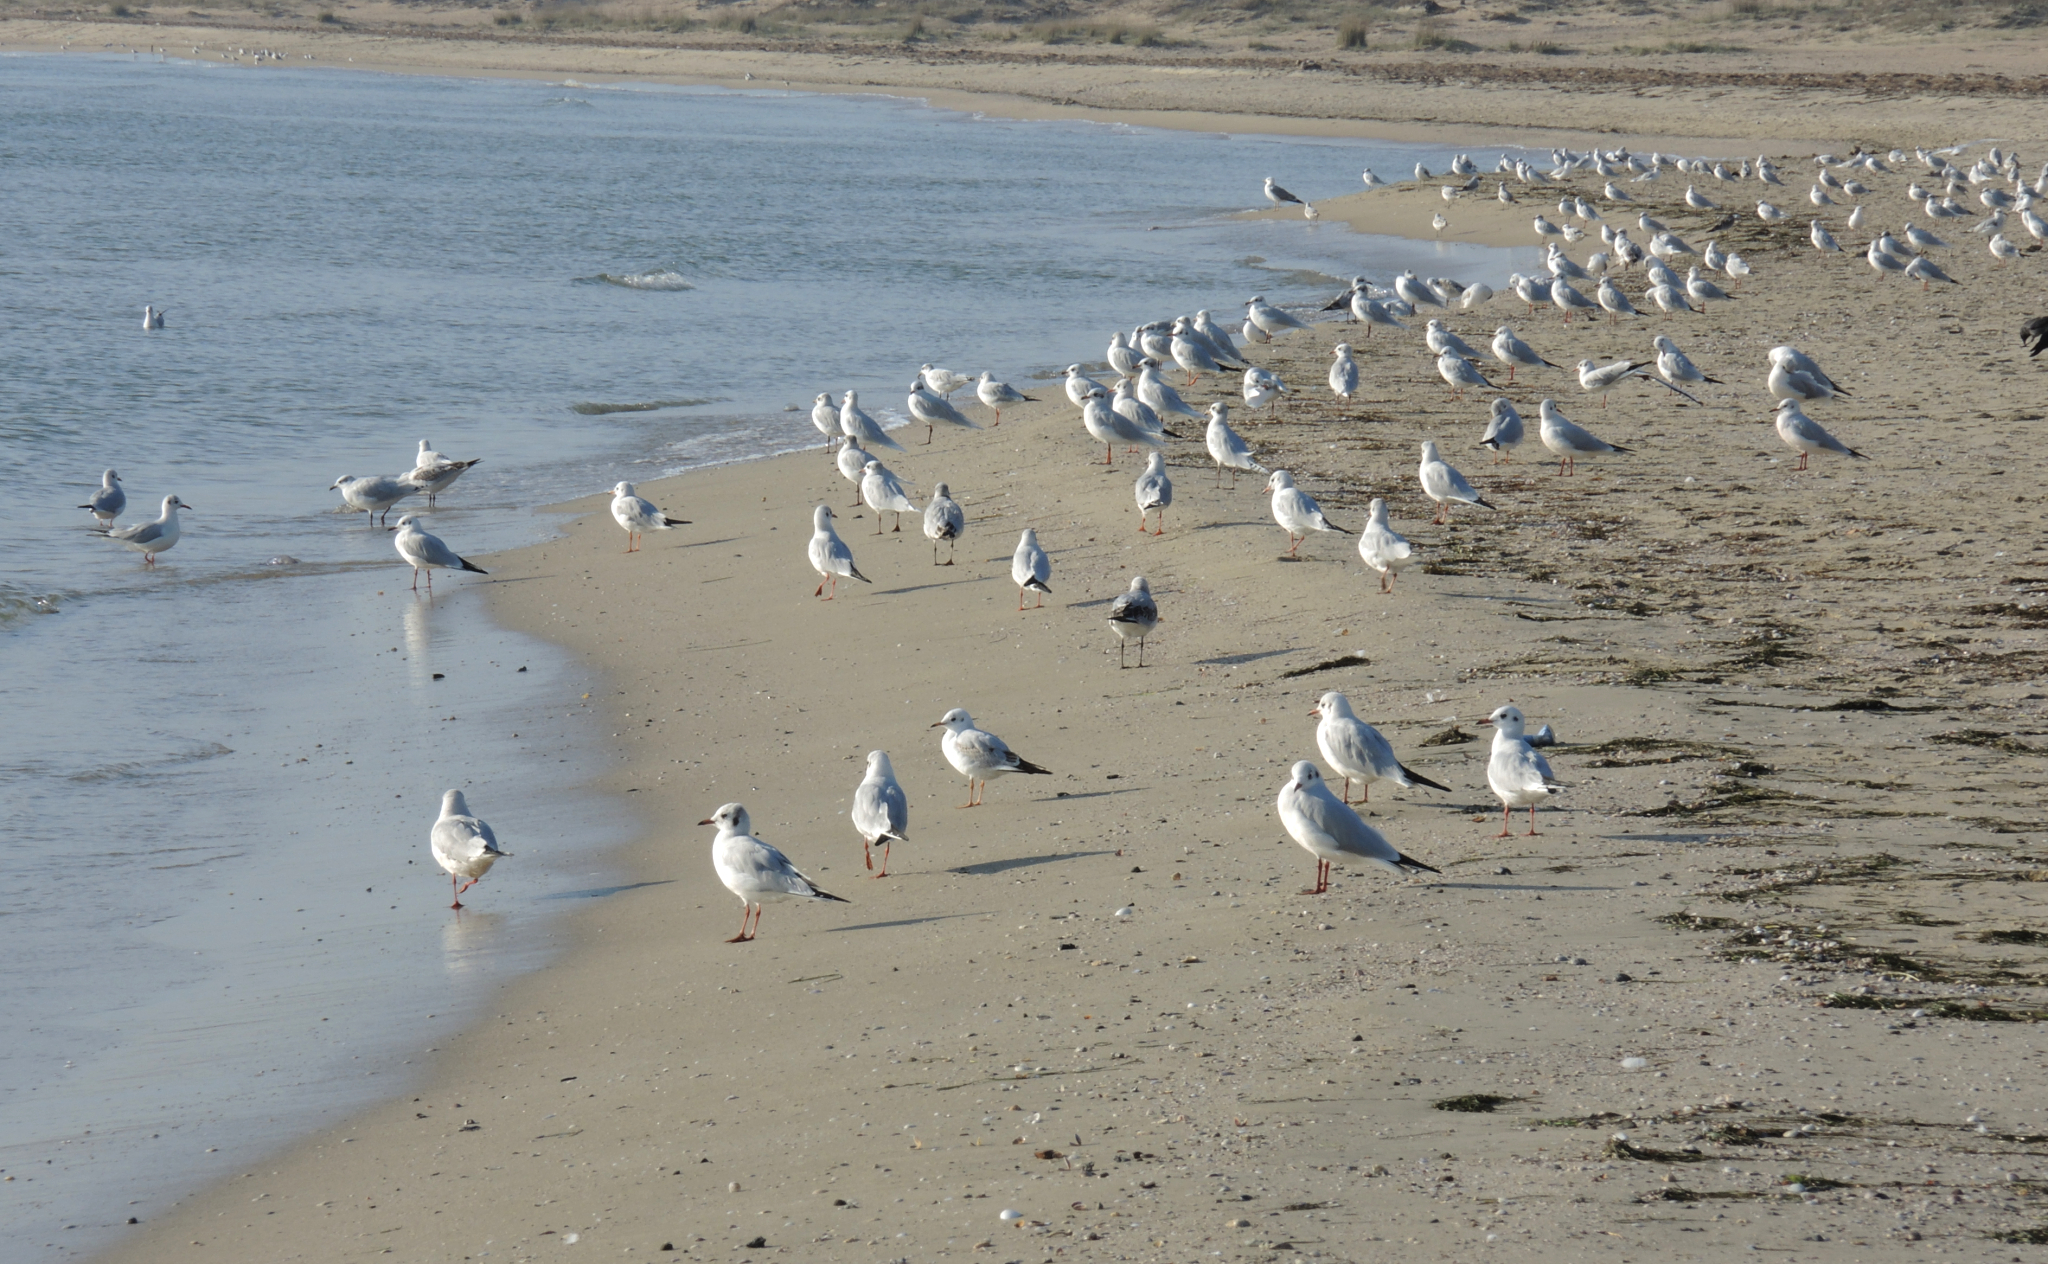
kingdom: Animalia
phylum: Chordata
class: Aves
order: Charadriiformes
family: Laridae
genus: Chroicocephalus
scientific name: Chroicocephalus ridibundus
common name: Black-headed gull
